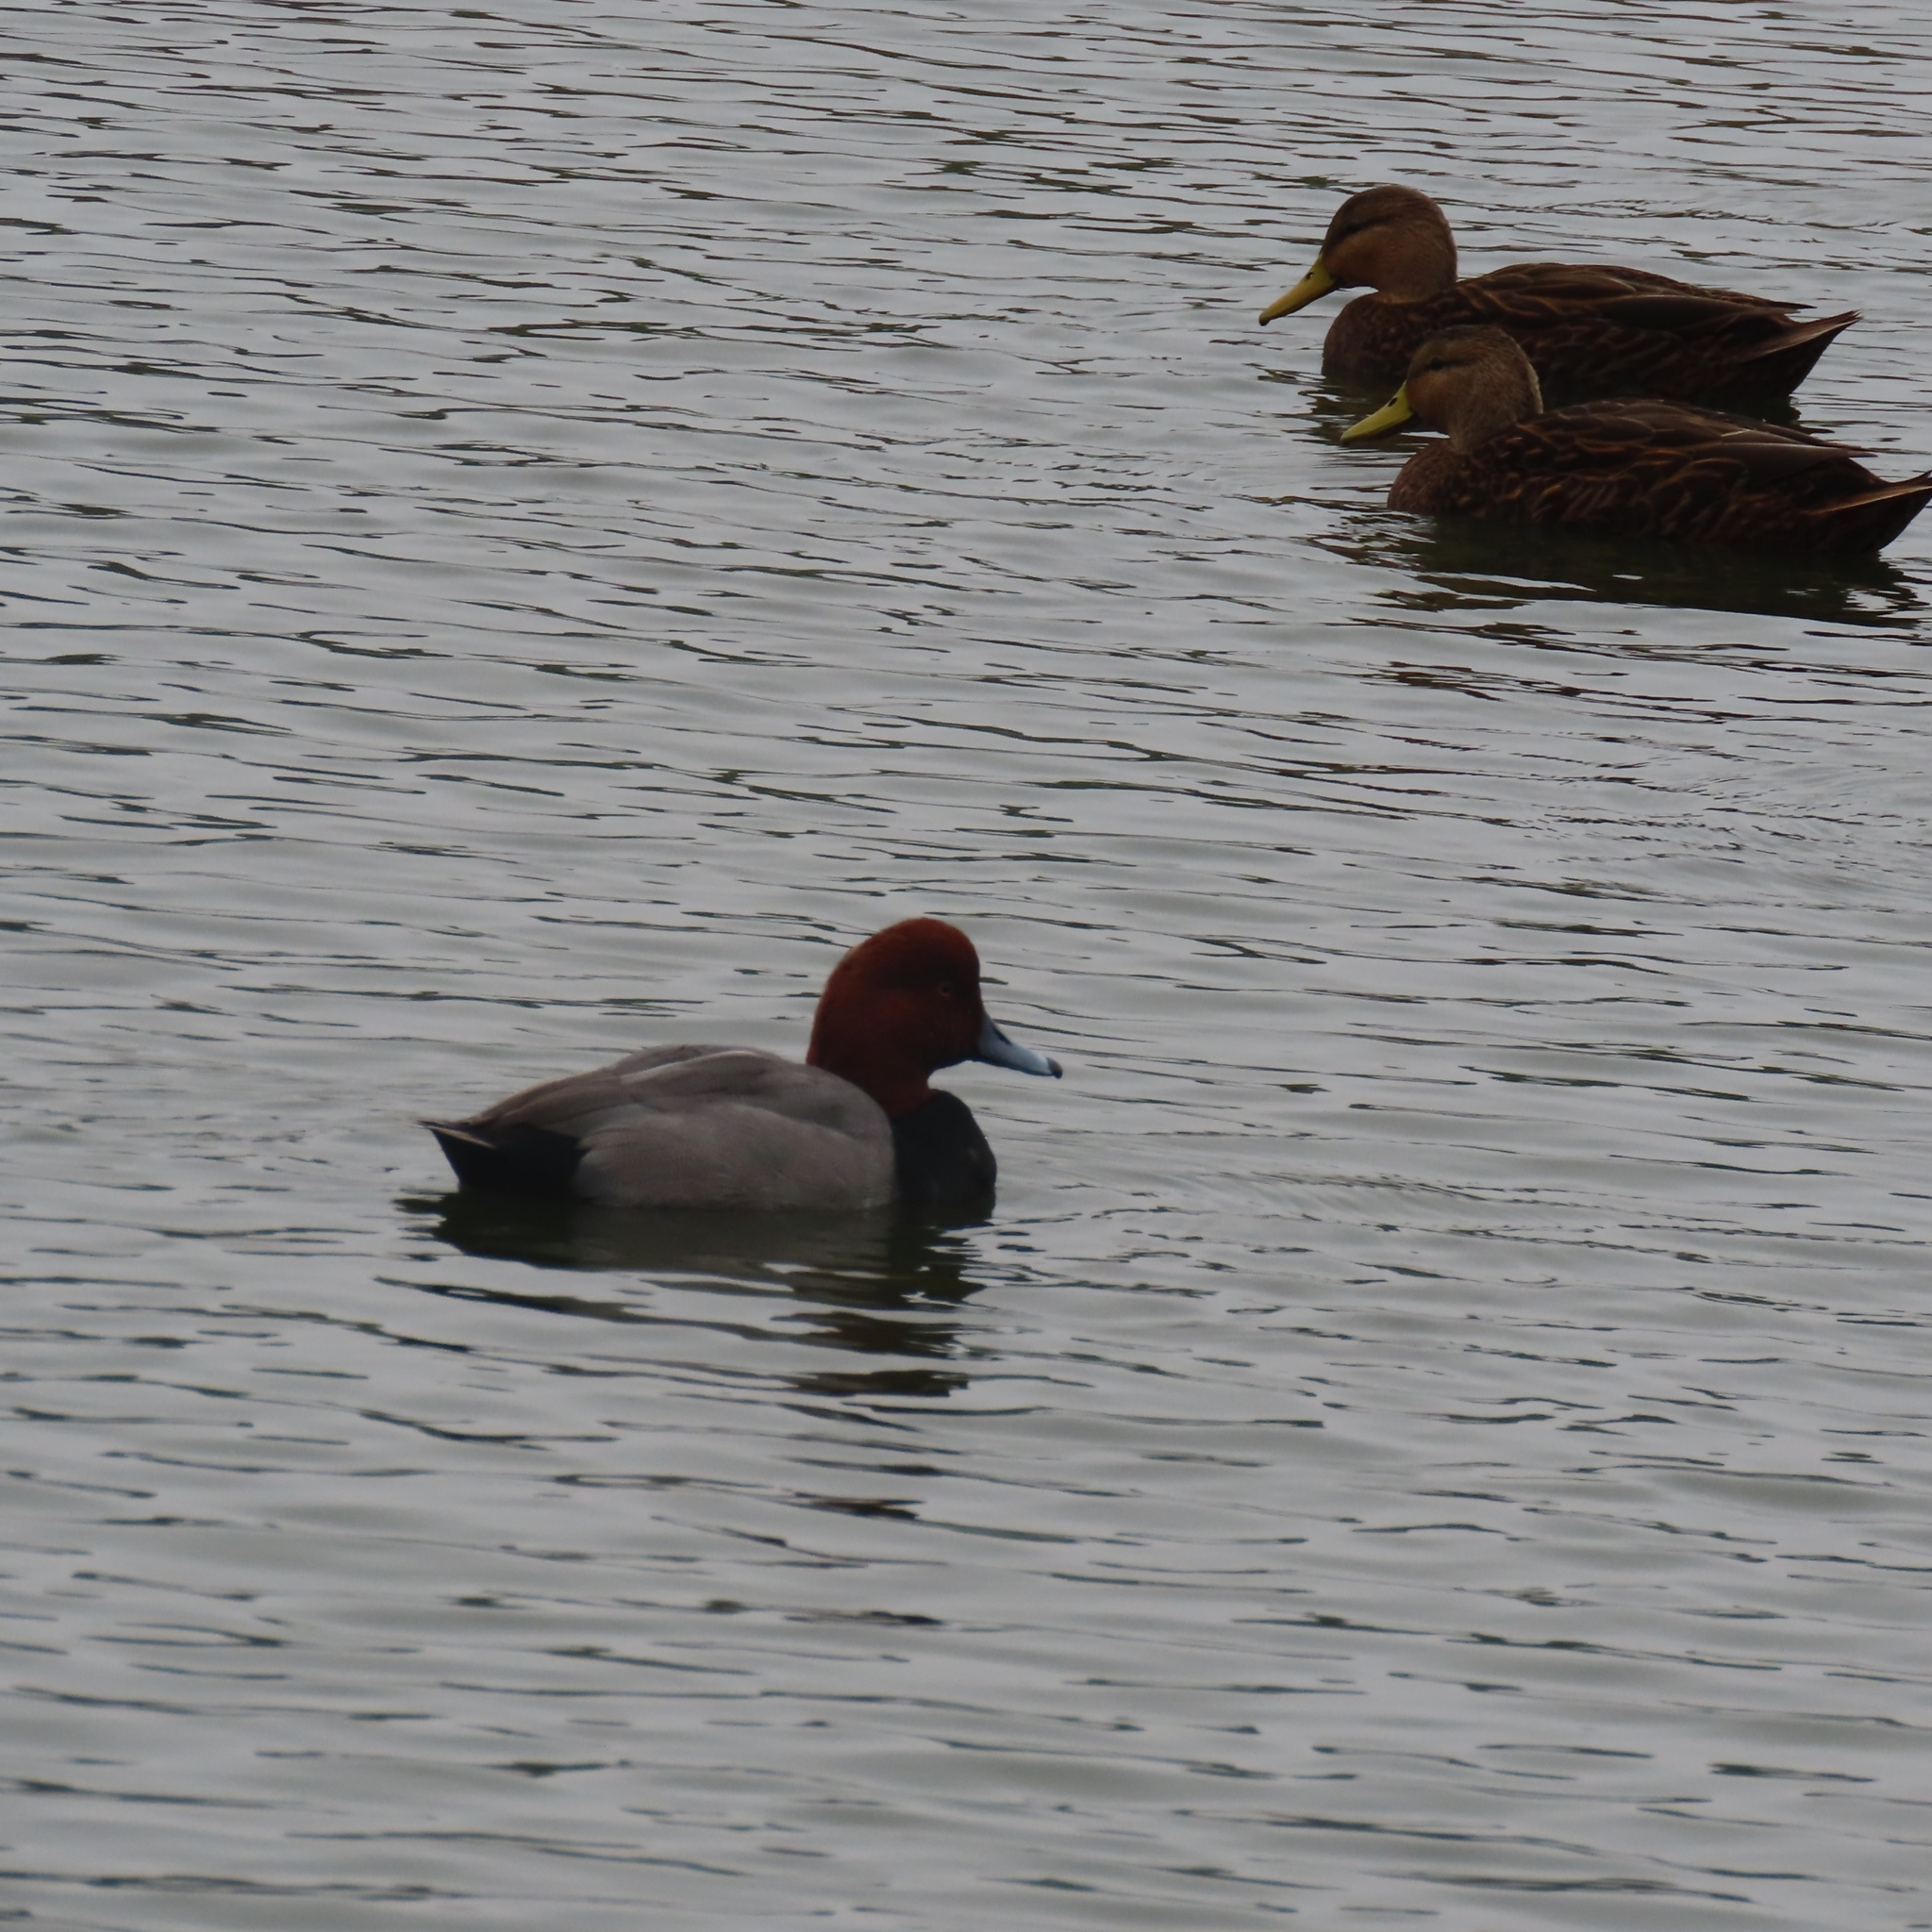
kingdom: Animalia
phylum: Chordata
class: Aves
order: Anseriformes
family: Anatidae
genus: Aythya
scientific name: Aythya americana
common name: Redhead
